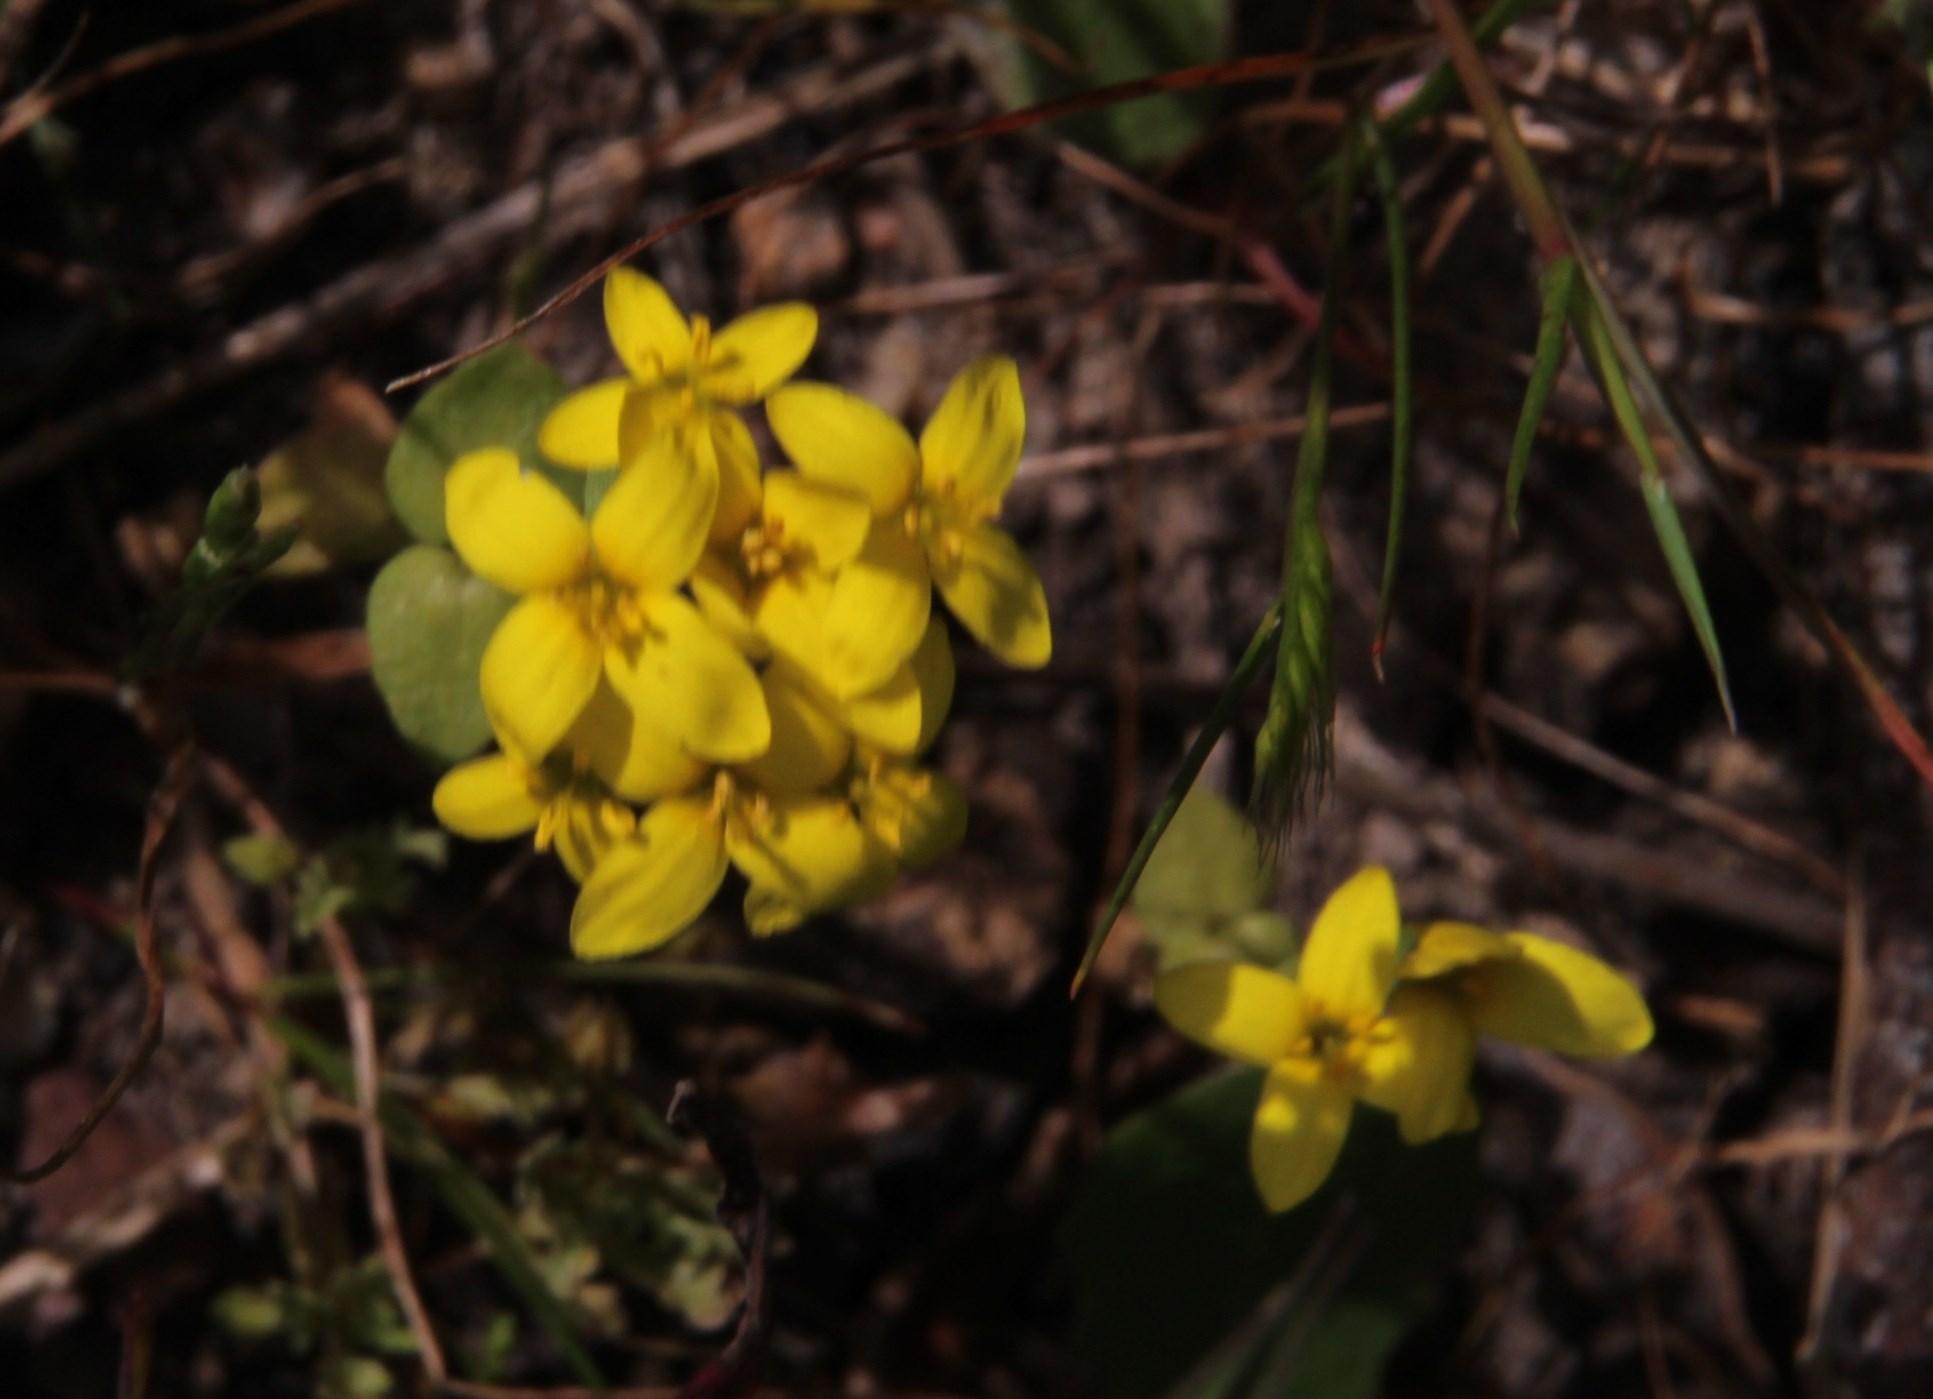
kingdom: Plantae
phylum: Tracheophyta
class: Magnoliopsida
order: Gentianales
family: Gentianaceae
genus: Sebaea
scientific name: Sebaea exacoides
